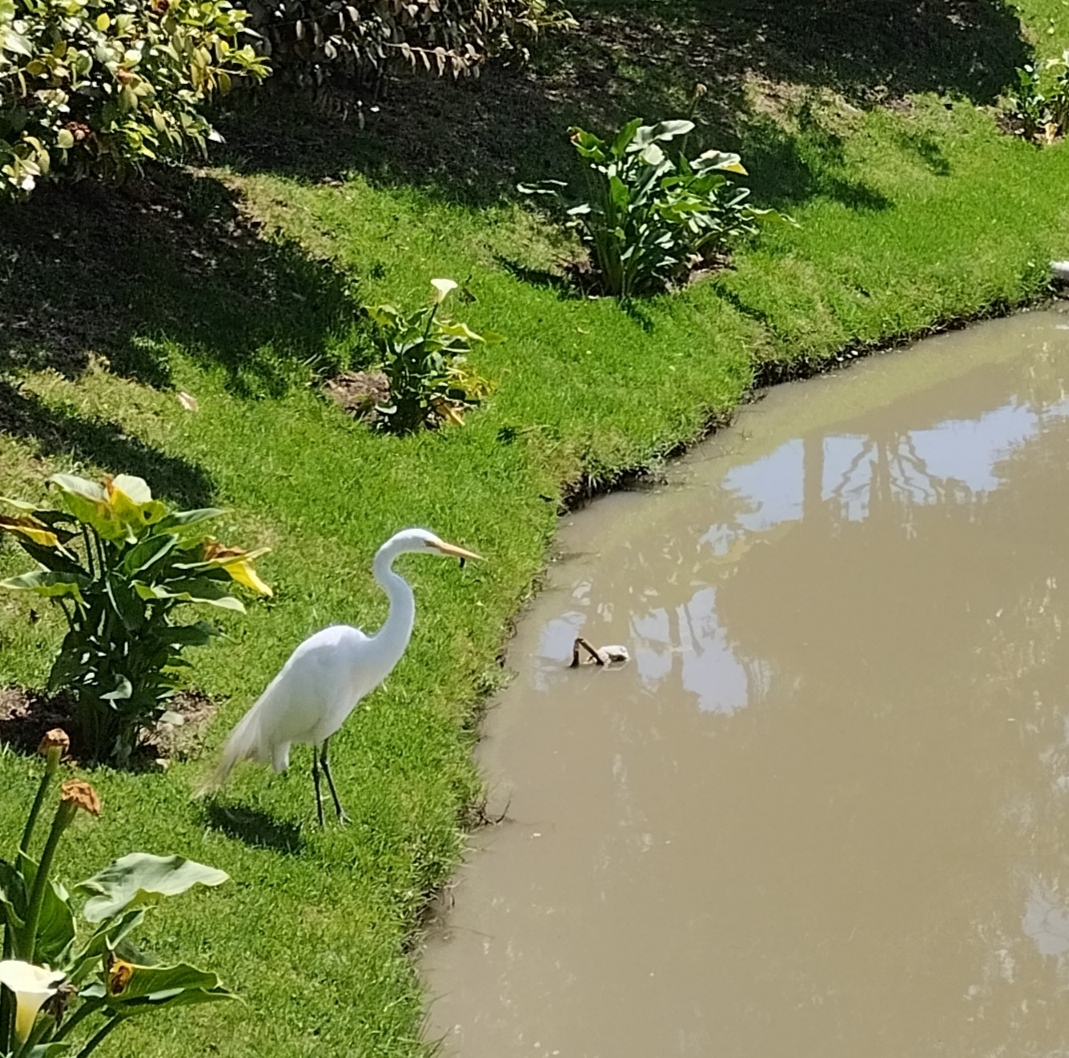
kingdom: Animalia
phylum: Chordata
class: Aves
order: Pelecaniformes
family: Ardeidae
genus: Ardea
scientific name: Ardea alba
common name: Great egret
